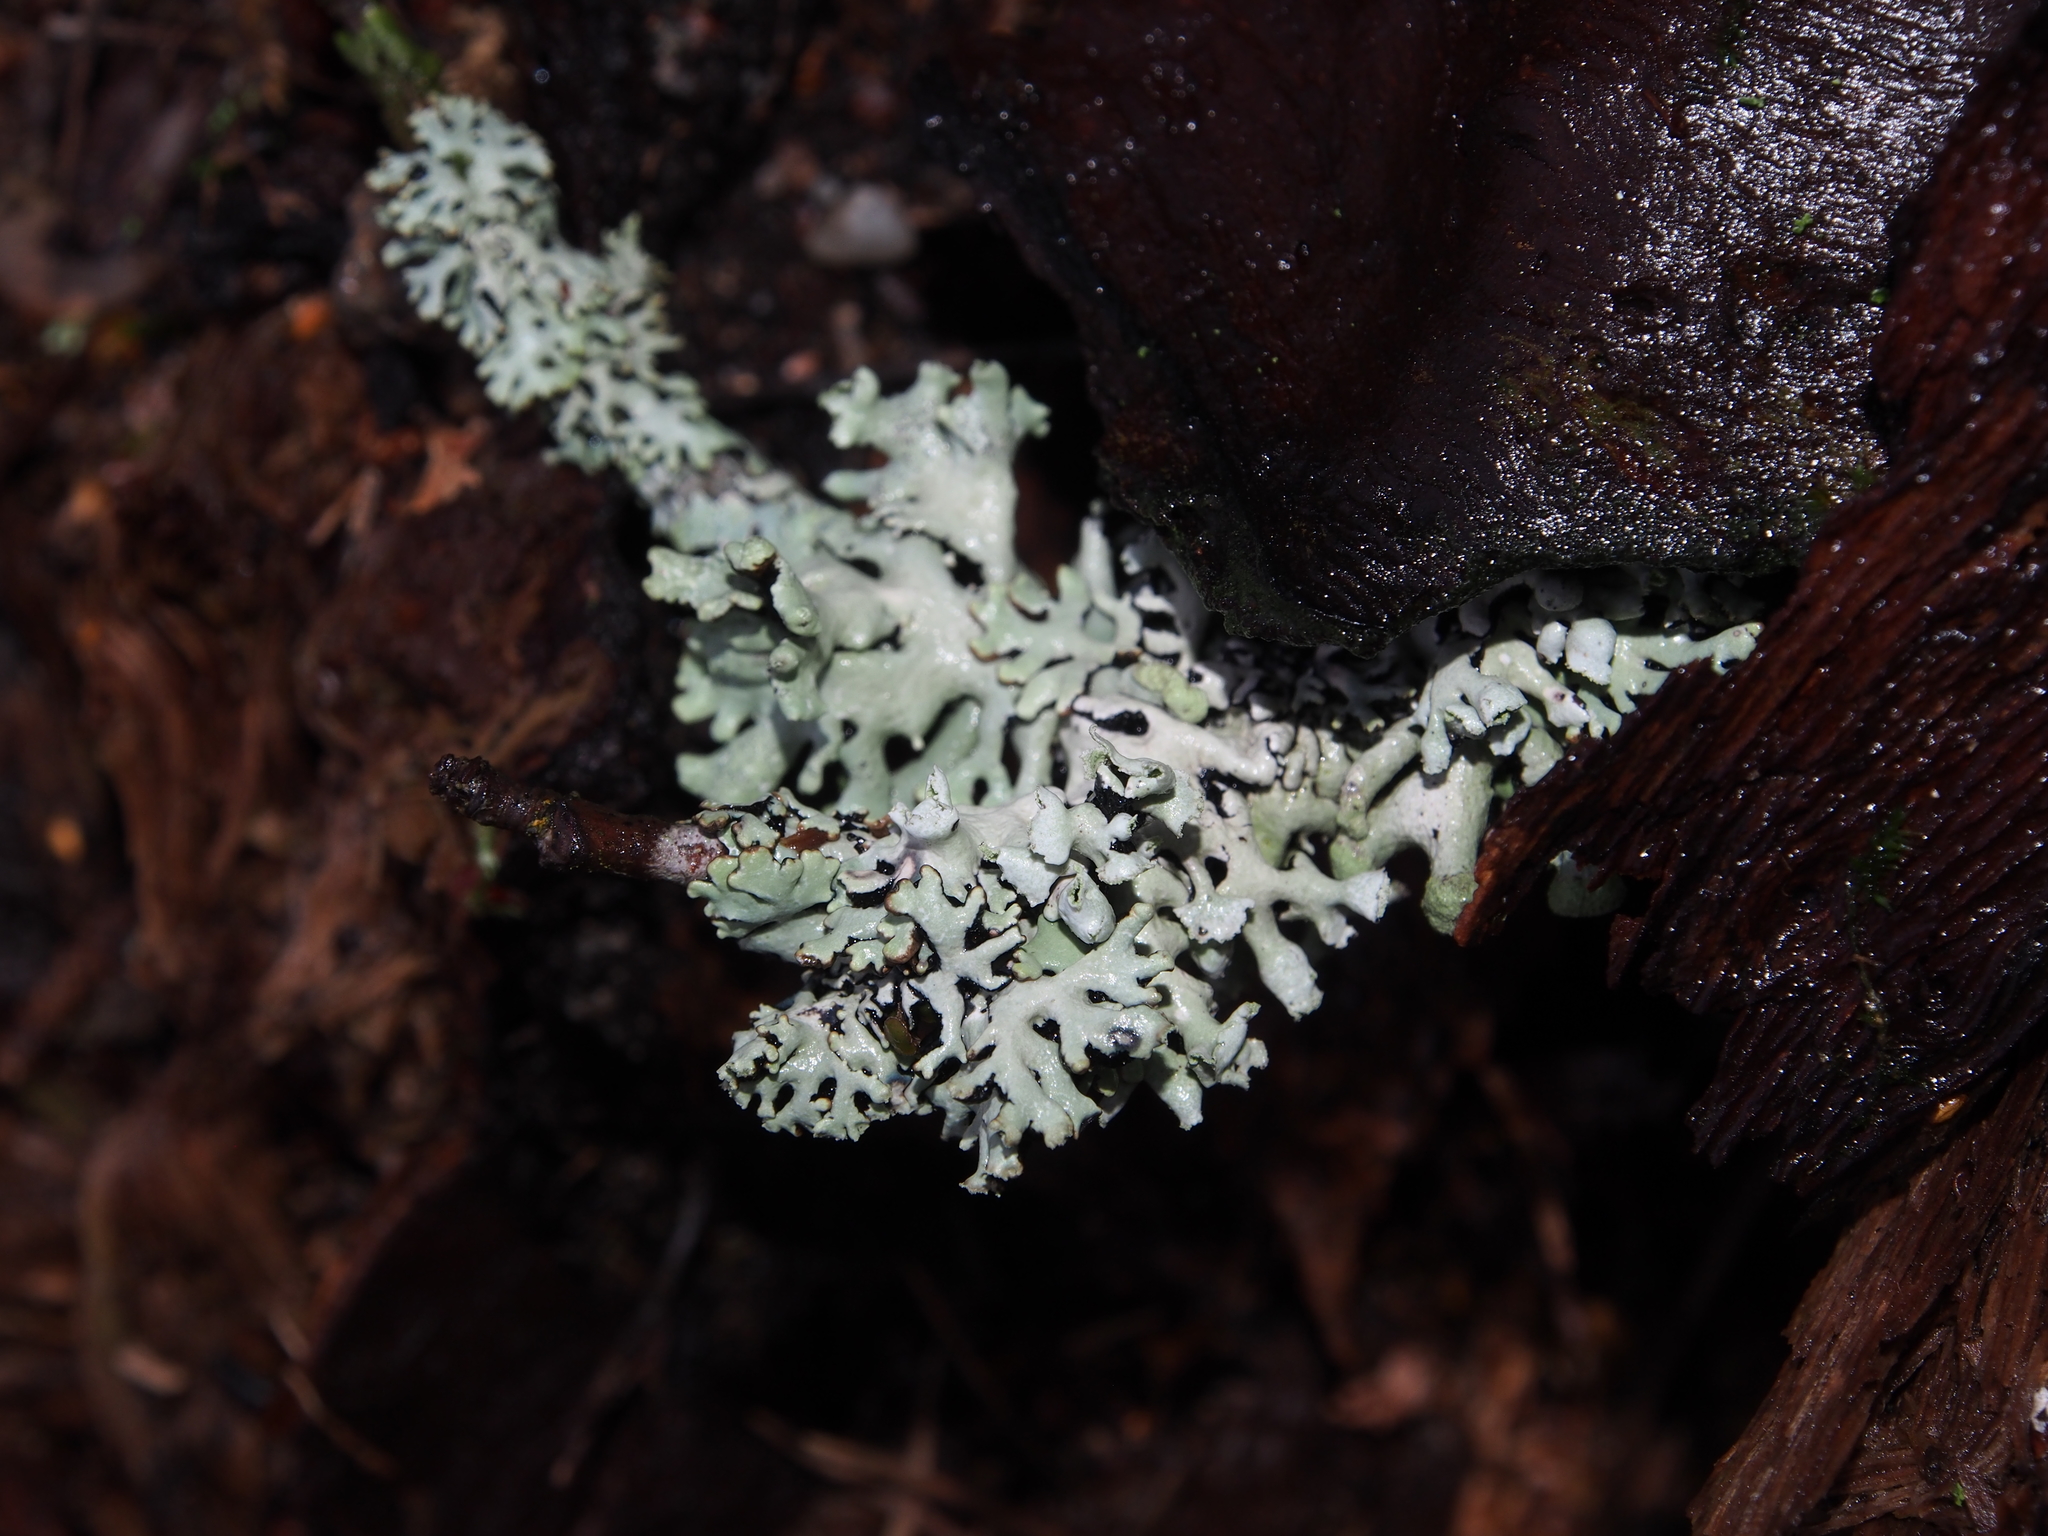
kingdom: Fungi
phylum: Ascomycota
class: Lecanoromycetes
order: Lecanorales
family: Parmeliaceae
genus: Hypogymnia
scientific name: Hypogymnia physodes
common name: Dark crottle
